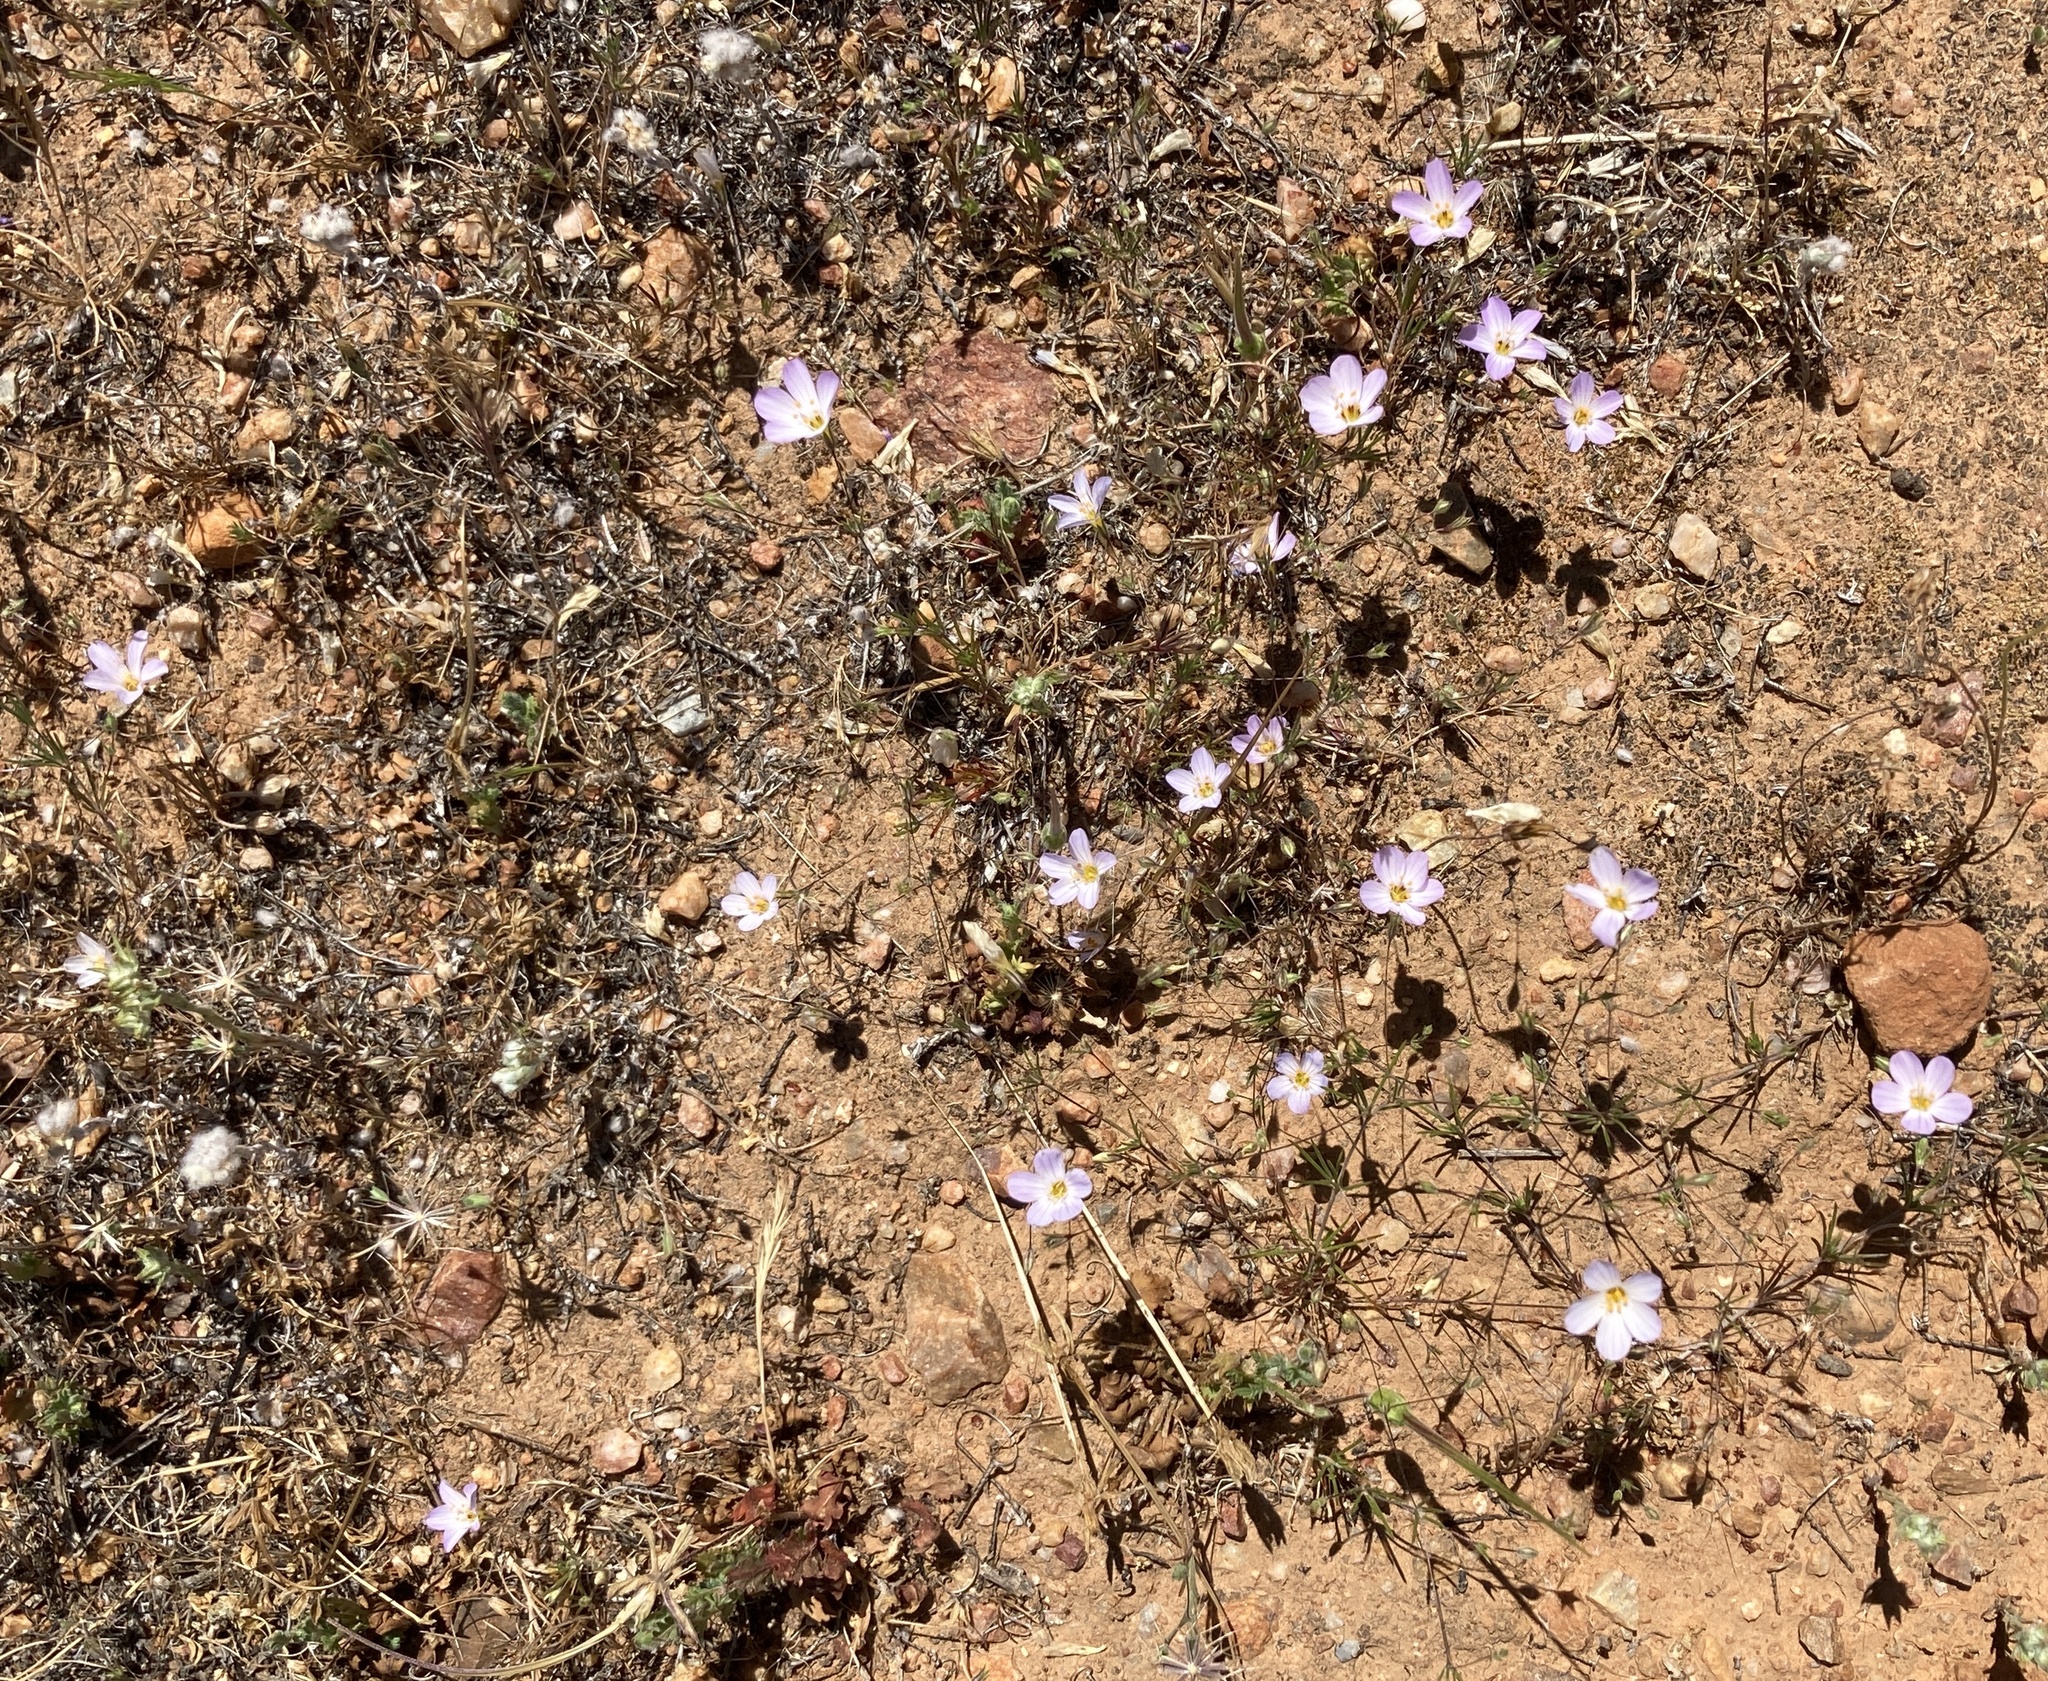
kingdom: Plantae
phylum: Tracheophyta
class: Magnoliopsida
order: Ericales
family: Polemoniaceae
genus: Leptosiphon
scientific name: Leptosiphon liniflorus
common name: Narrowflower flaxflower
